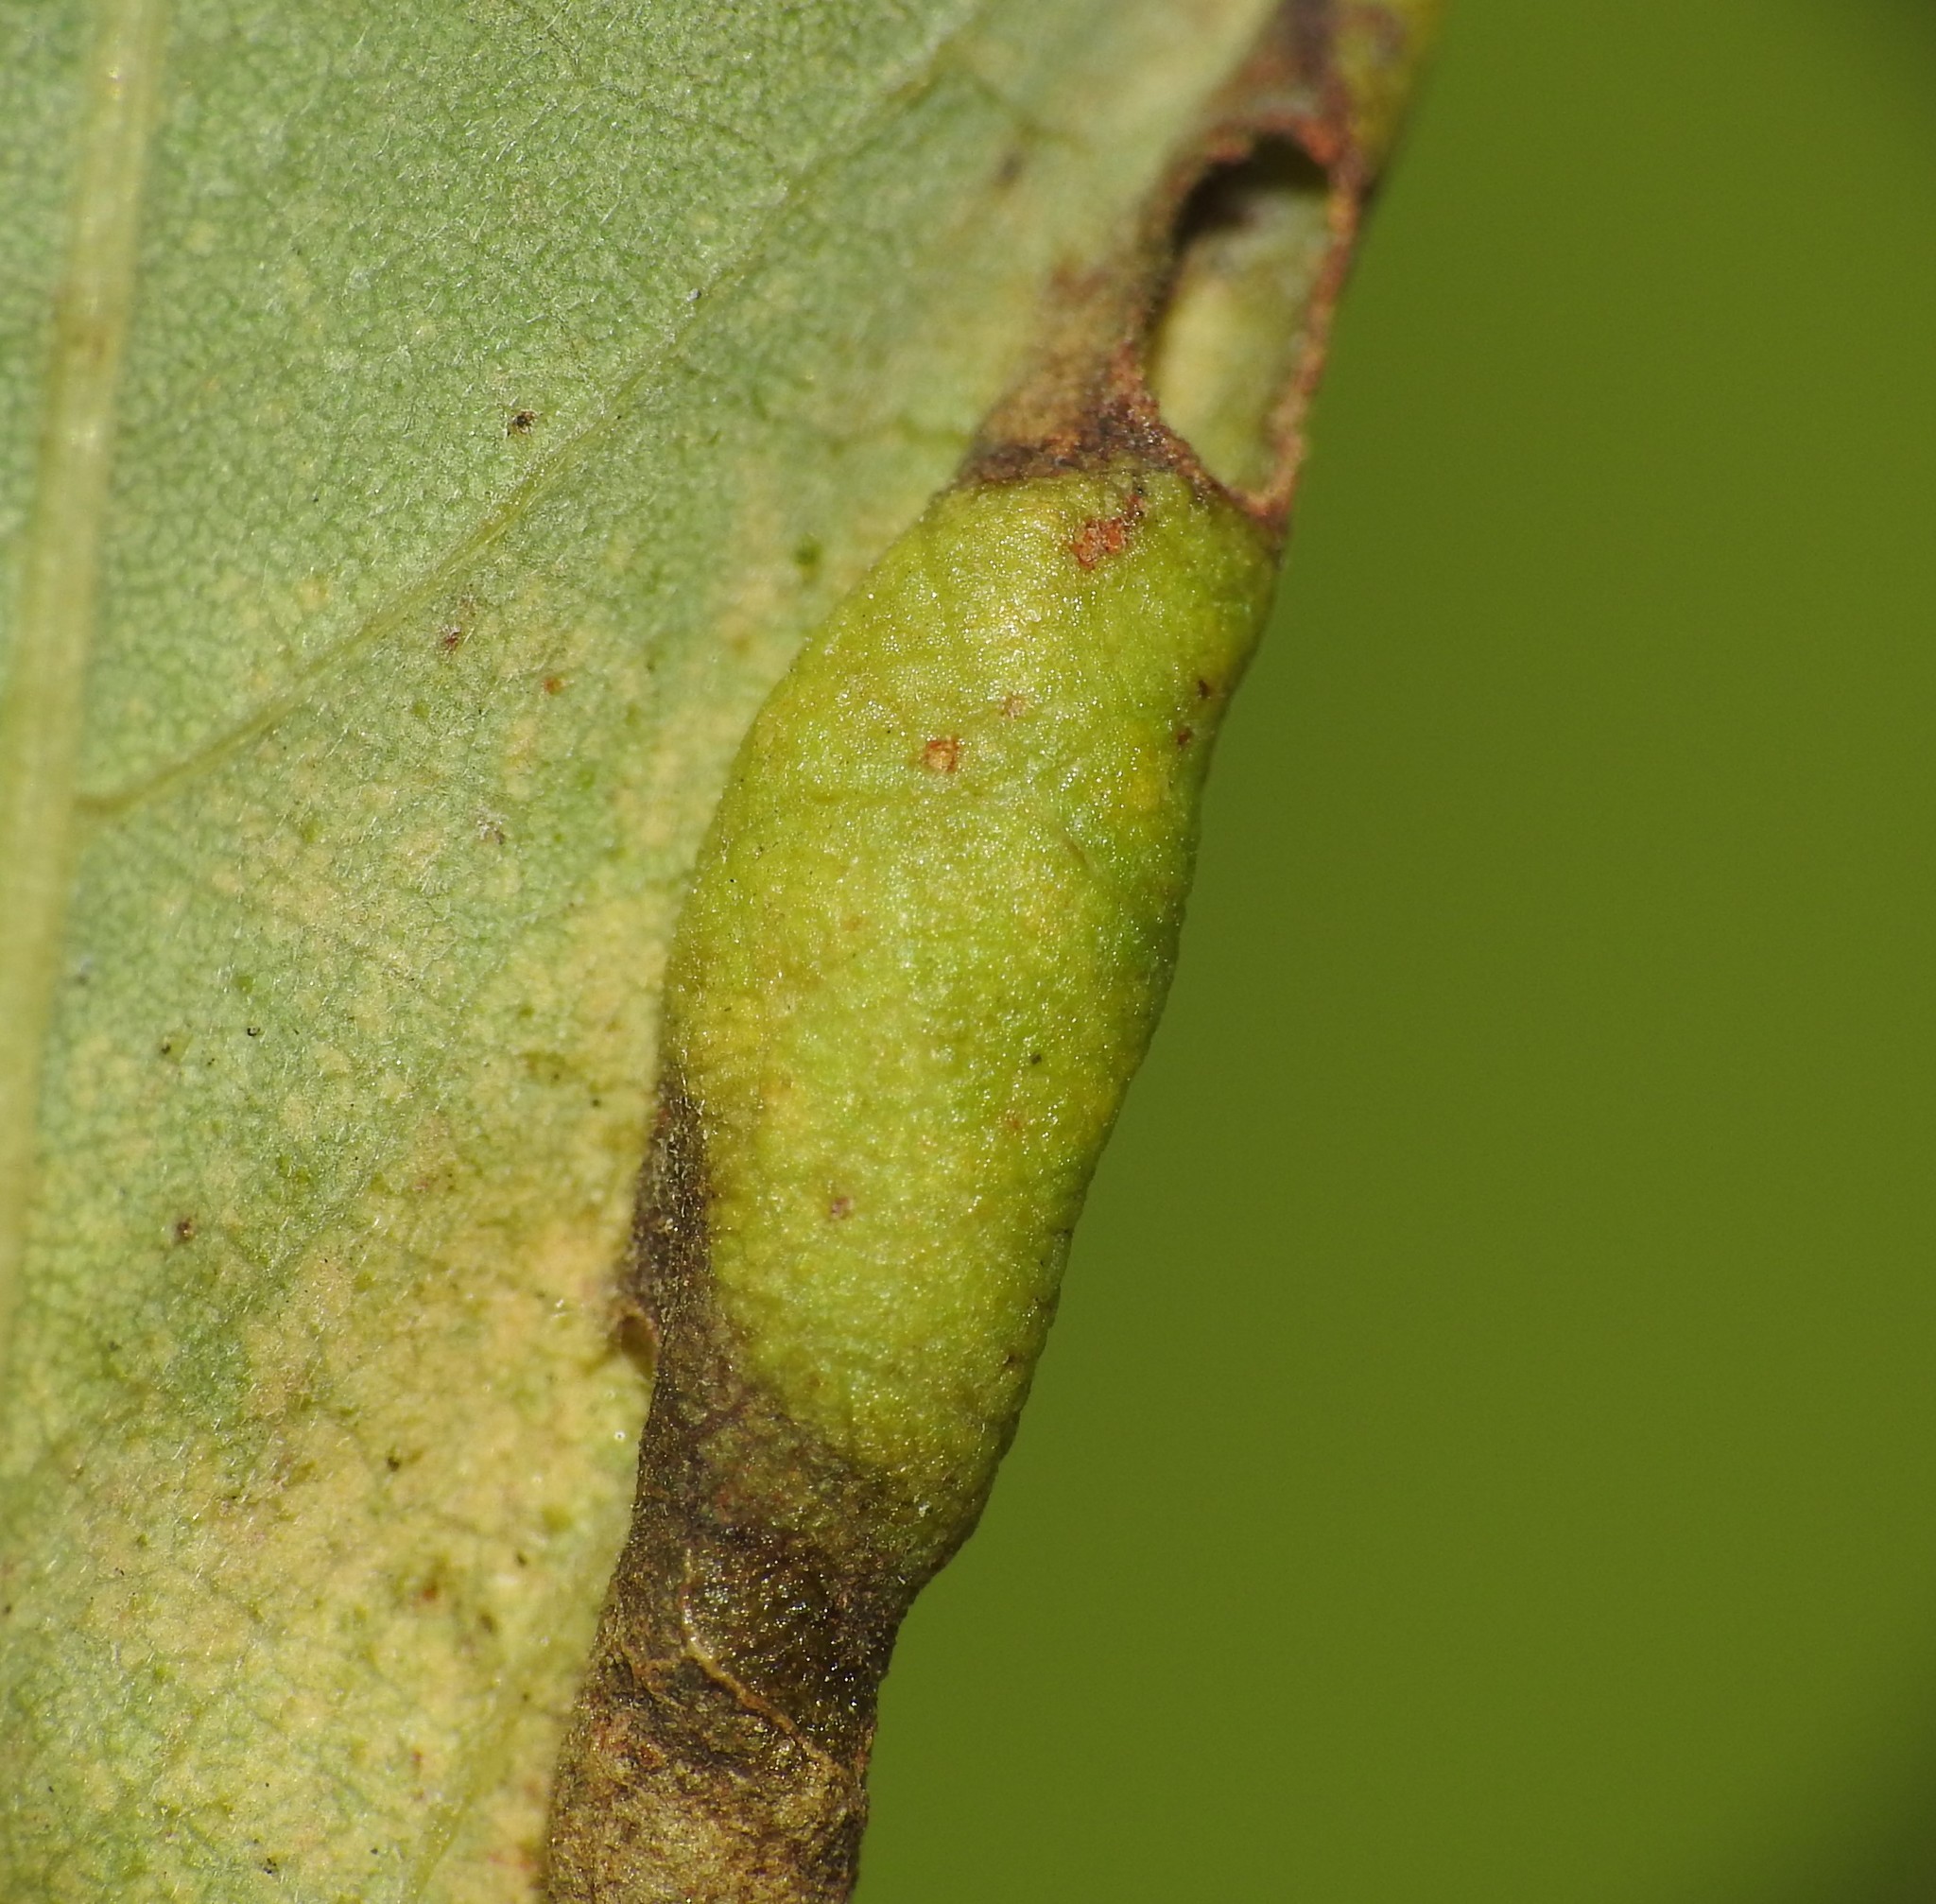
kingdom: Animalia
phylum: Arthropoda
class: Insecta
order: Diptera
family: Cecidomyiidae
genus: Obolodiplosis
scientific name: Obolodiplosis robiniae
